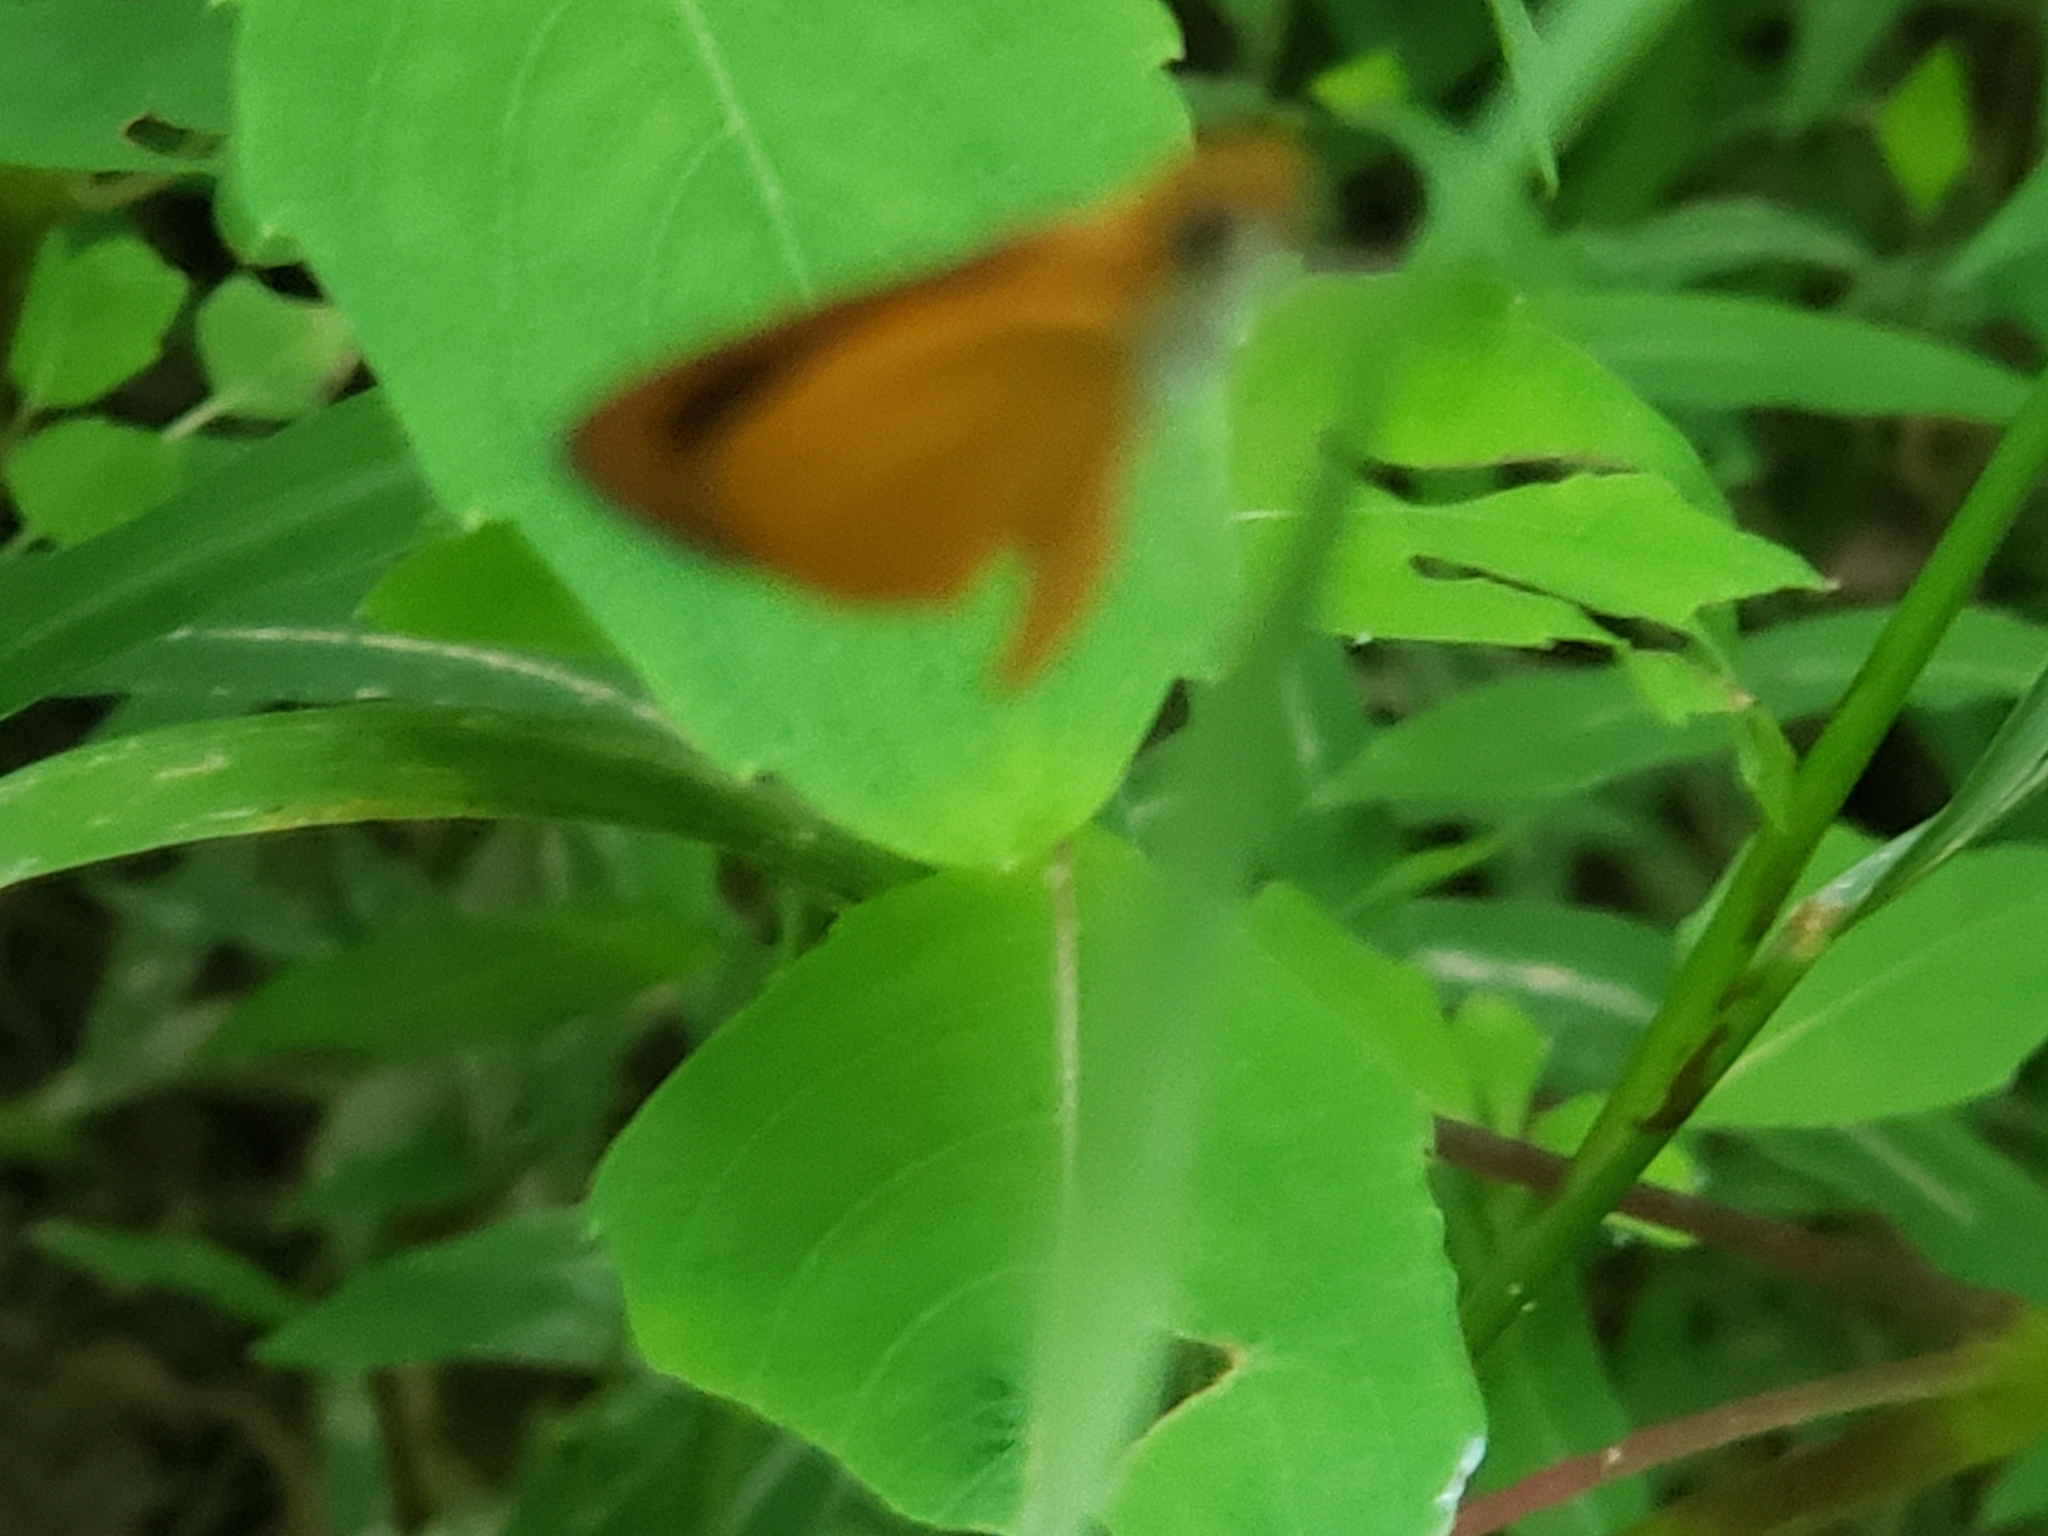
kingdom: Animalia
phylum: Arthropoda
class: Insecta
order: Lepidoptera
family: Hesperiidae
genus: Ancyloxypha
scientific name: Ancyloxypha numitor
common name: Least skipper
